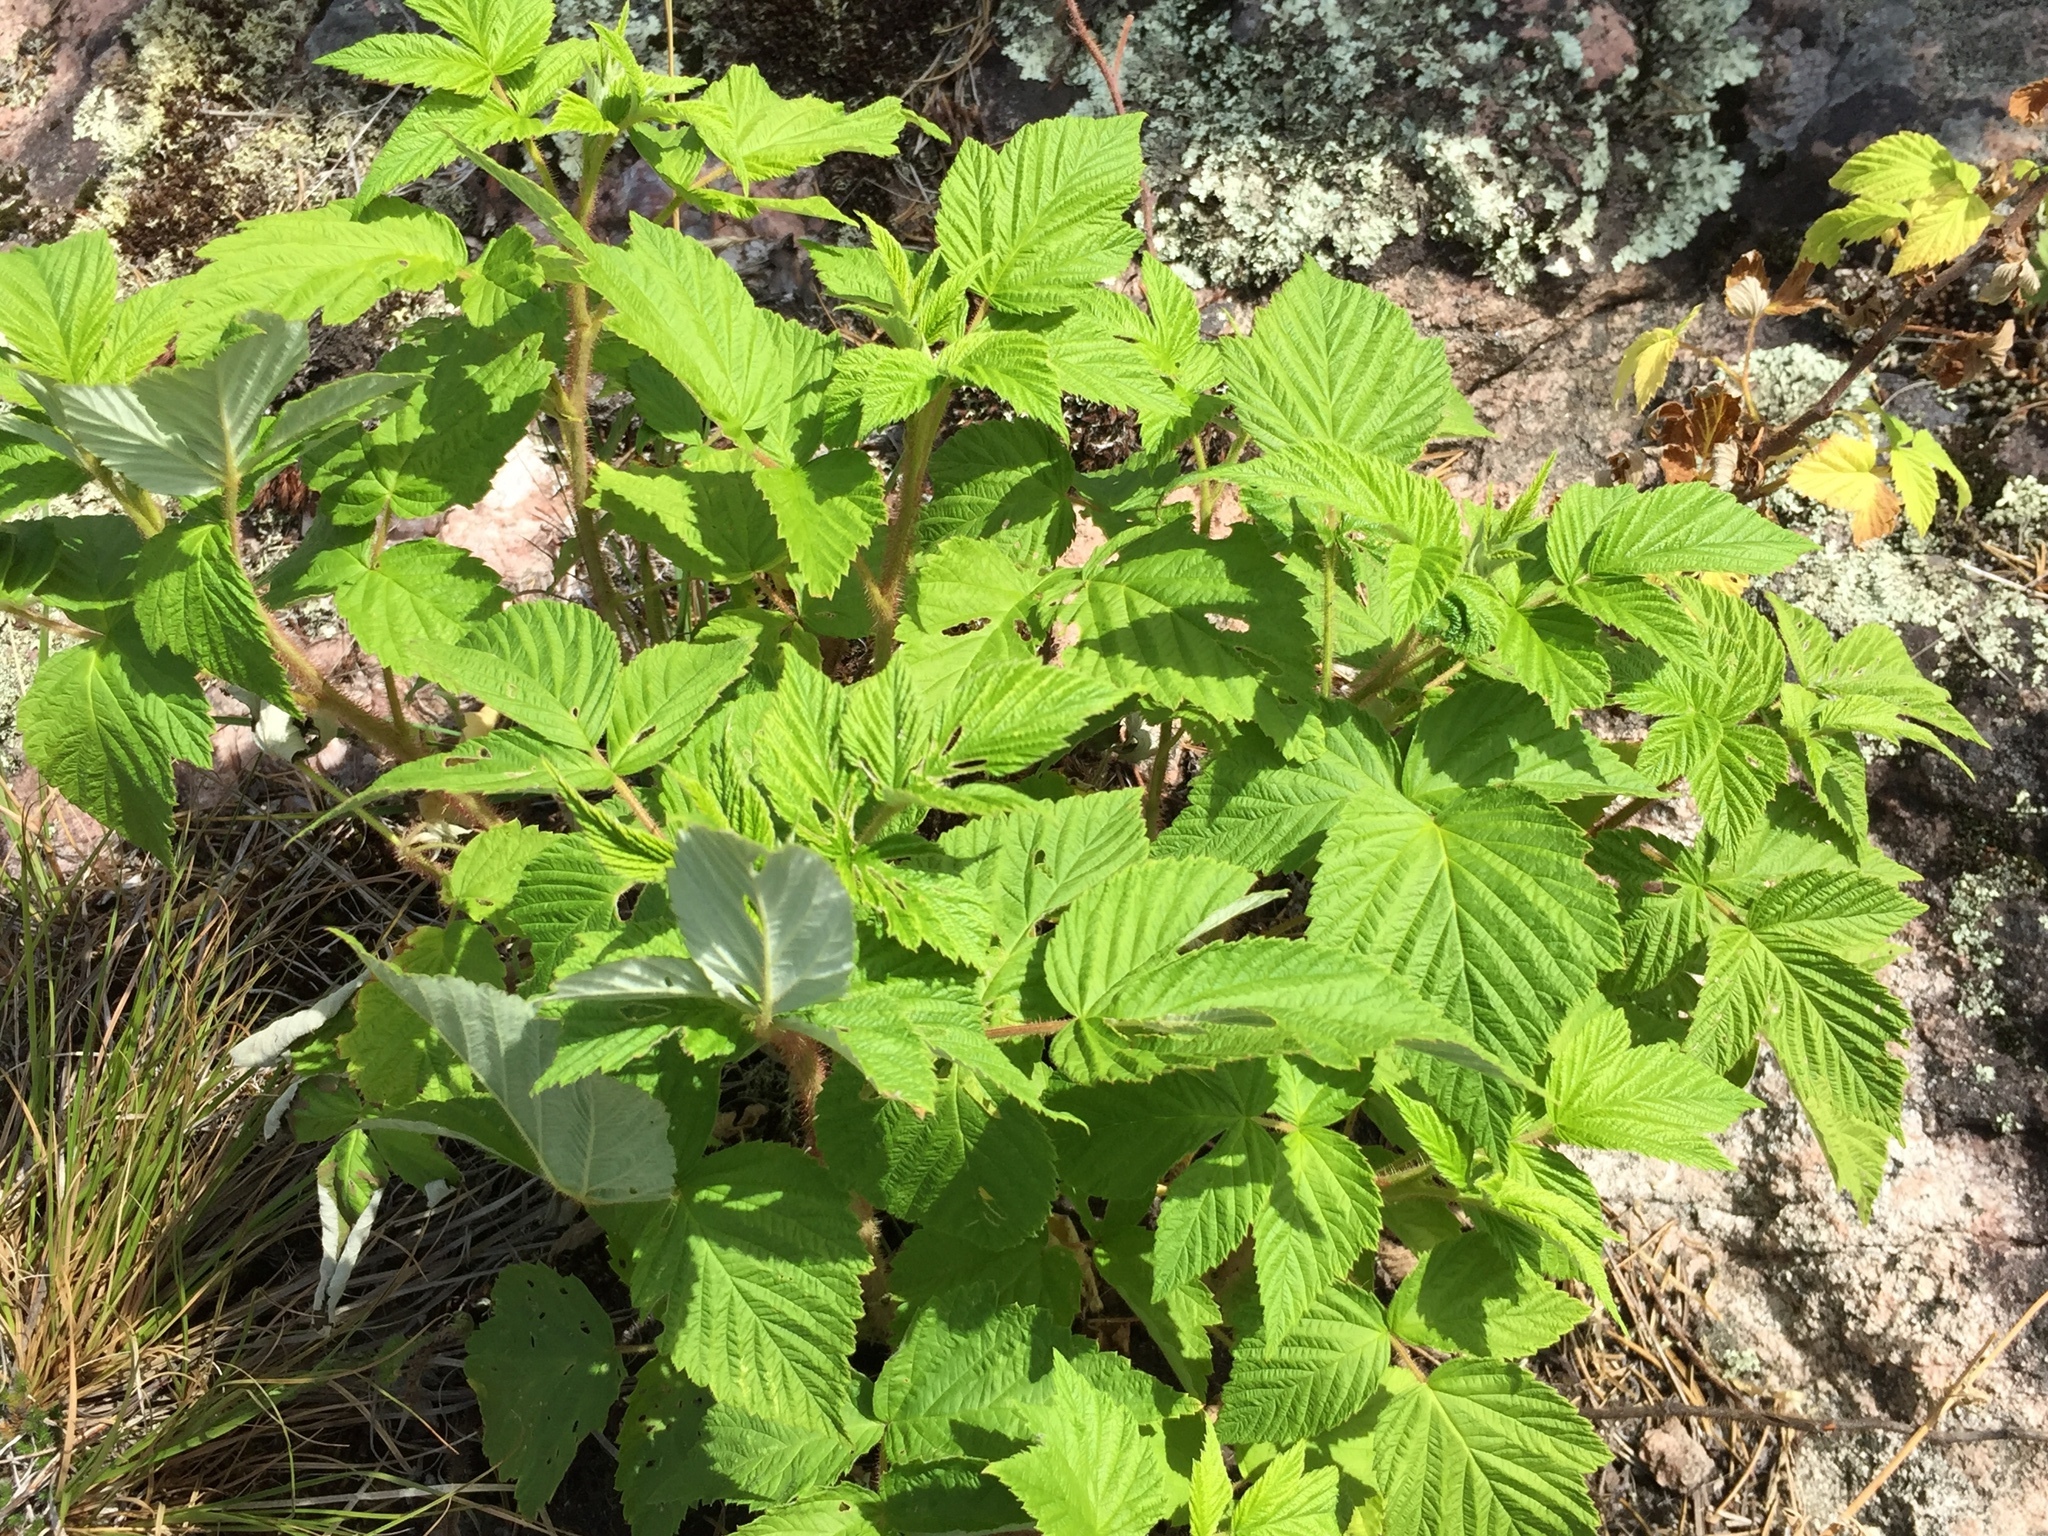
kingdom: Plantae
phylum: Tracheophyta
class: Magnoliopsida
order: Rosales
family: Rosaceae
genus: Rubus
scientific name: Rubus idaeus
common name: Raspberry
